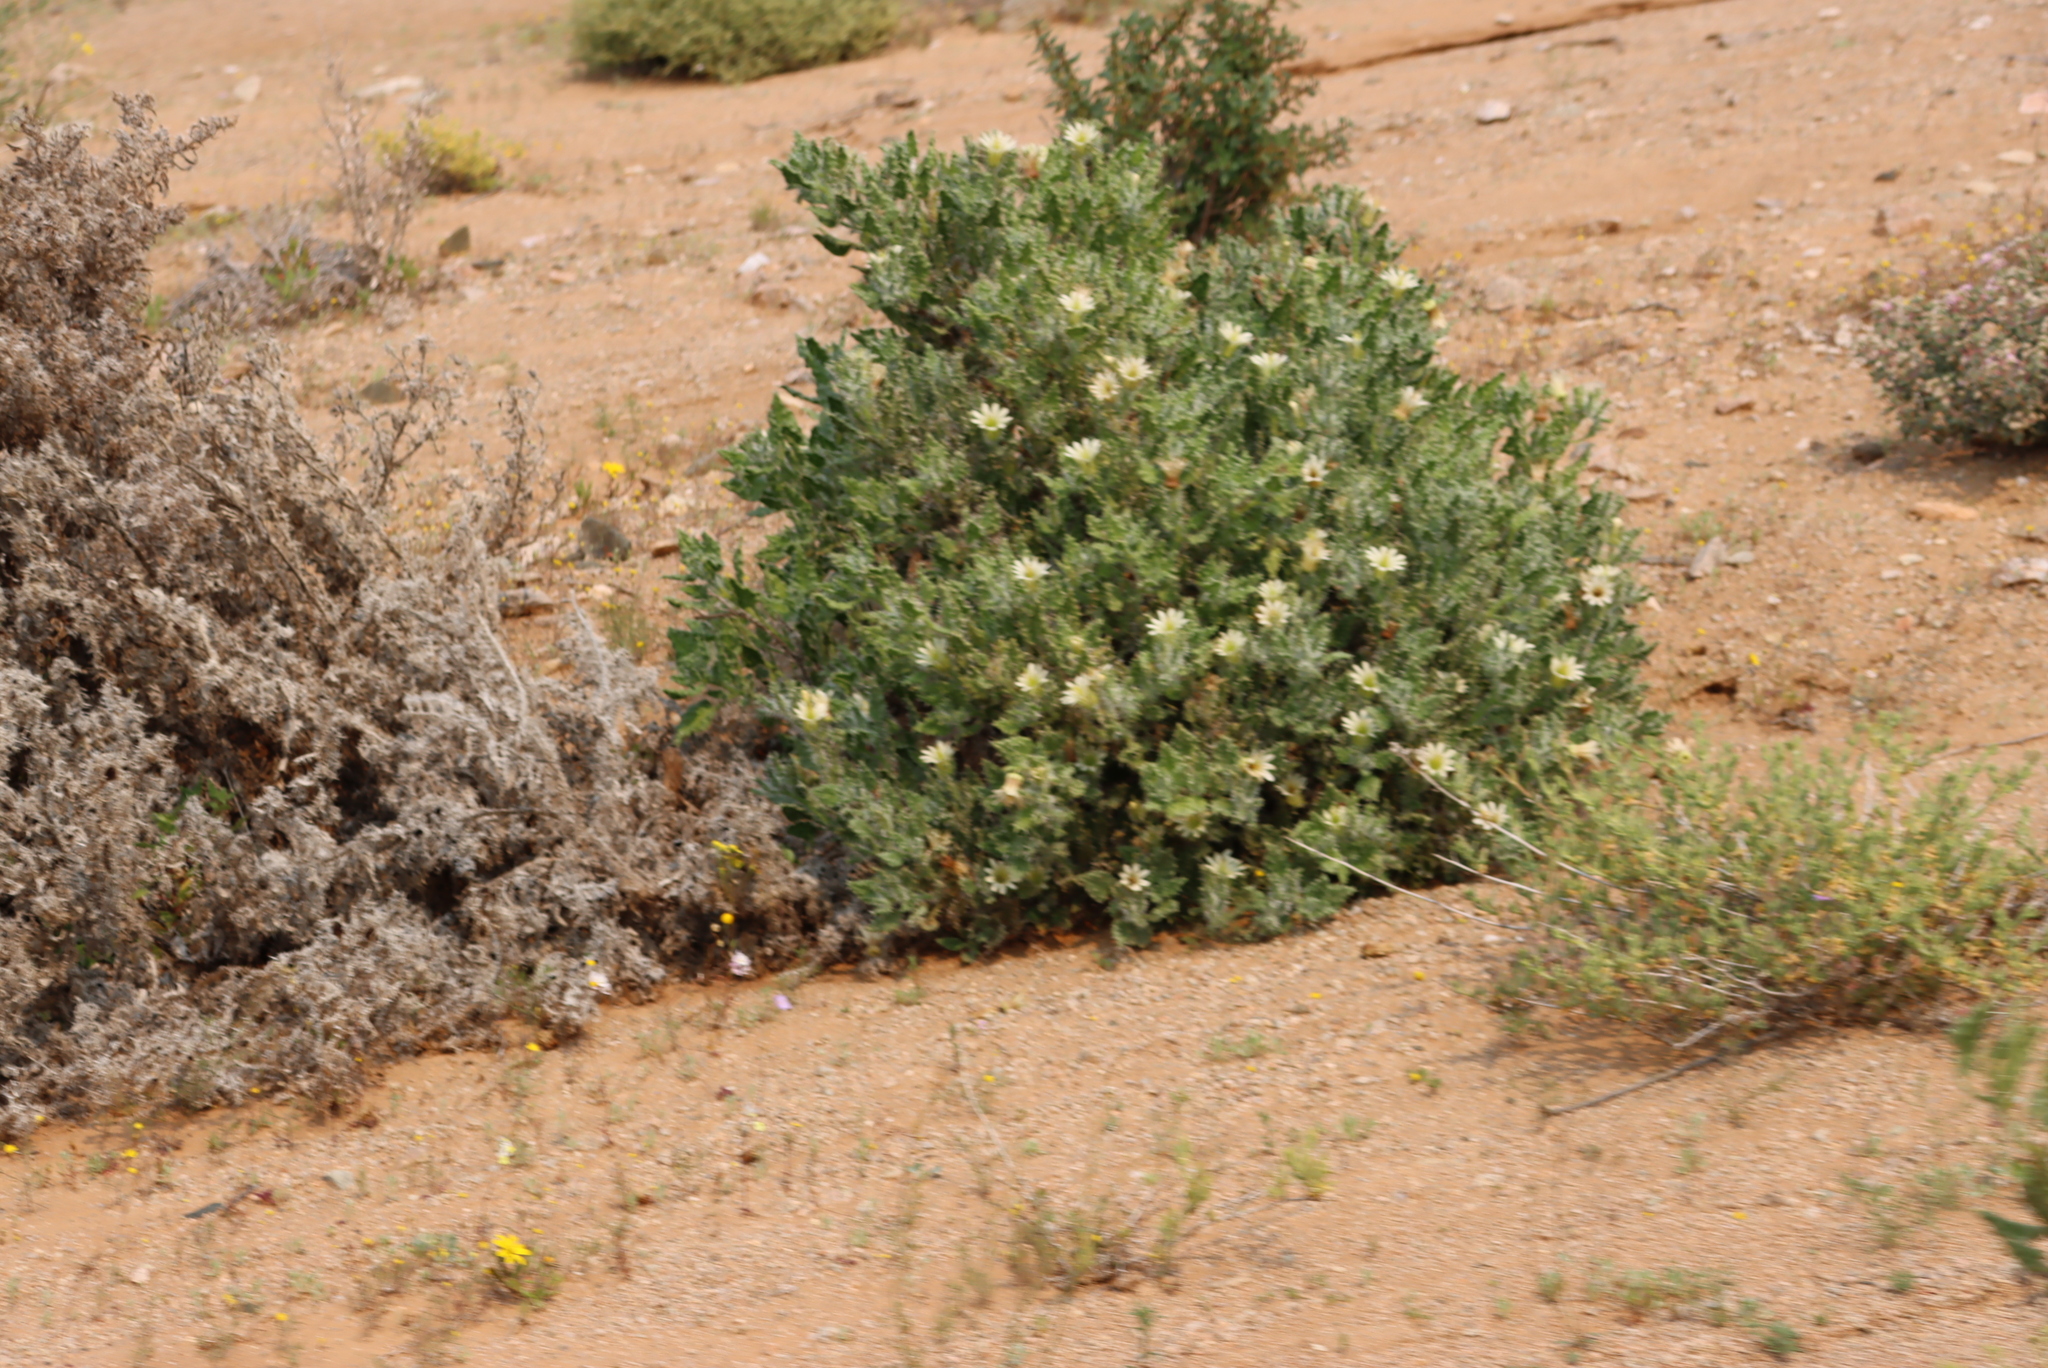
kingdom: Plantae
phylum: Tracheophyta
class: Magnoliopsida
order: Boraginales
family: Boraginaceae
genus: Codon
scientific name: Codon royenii
